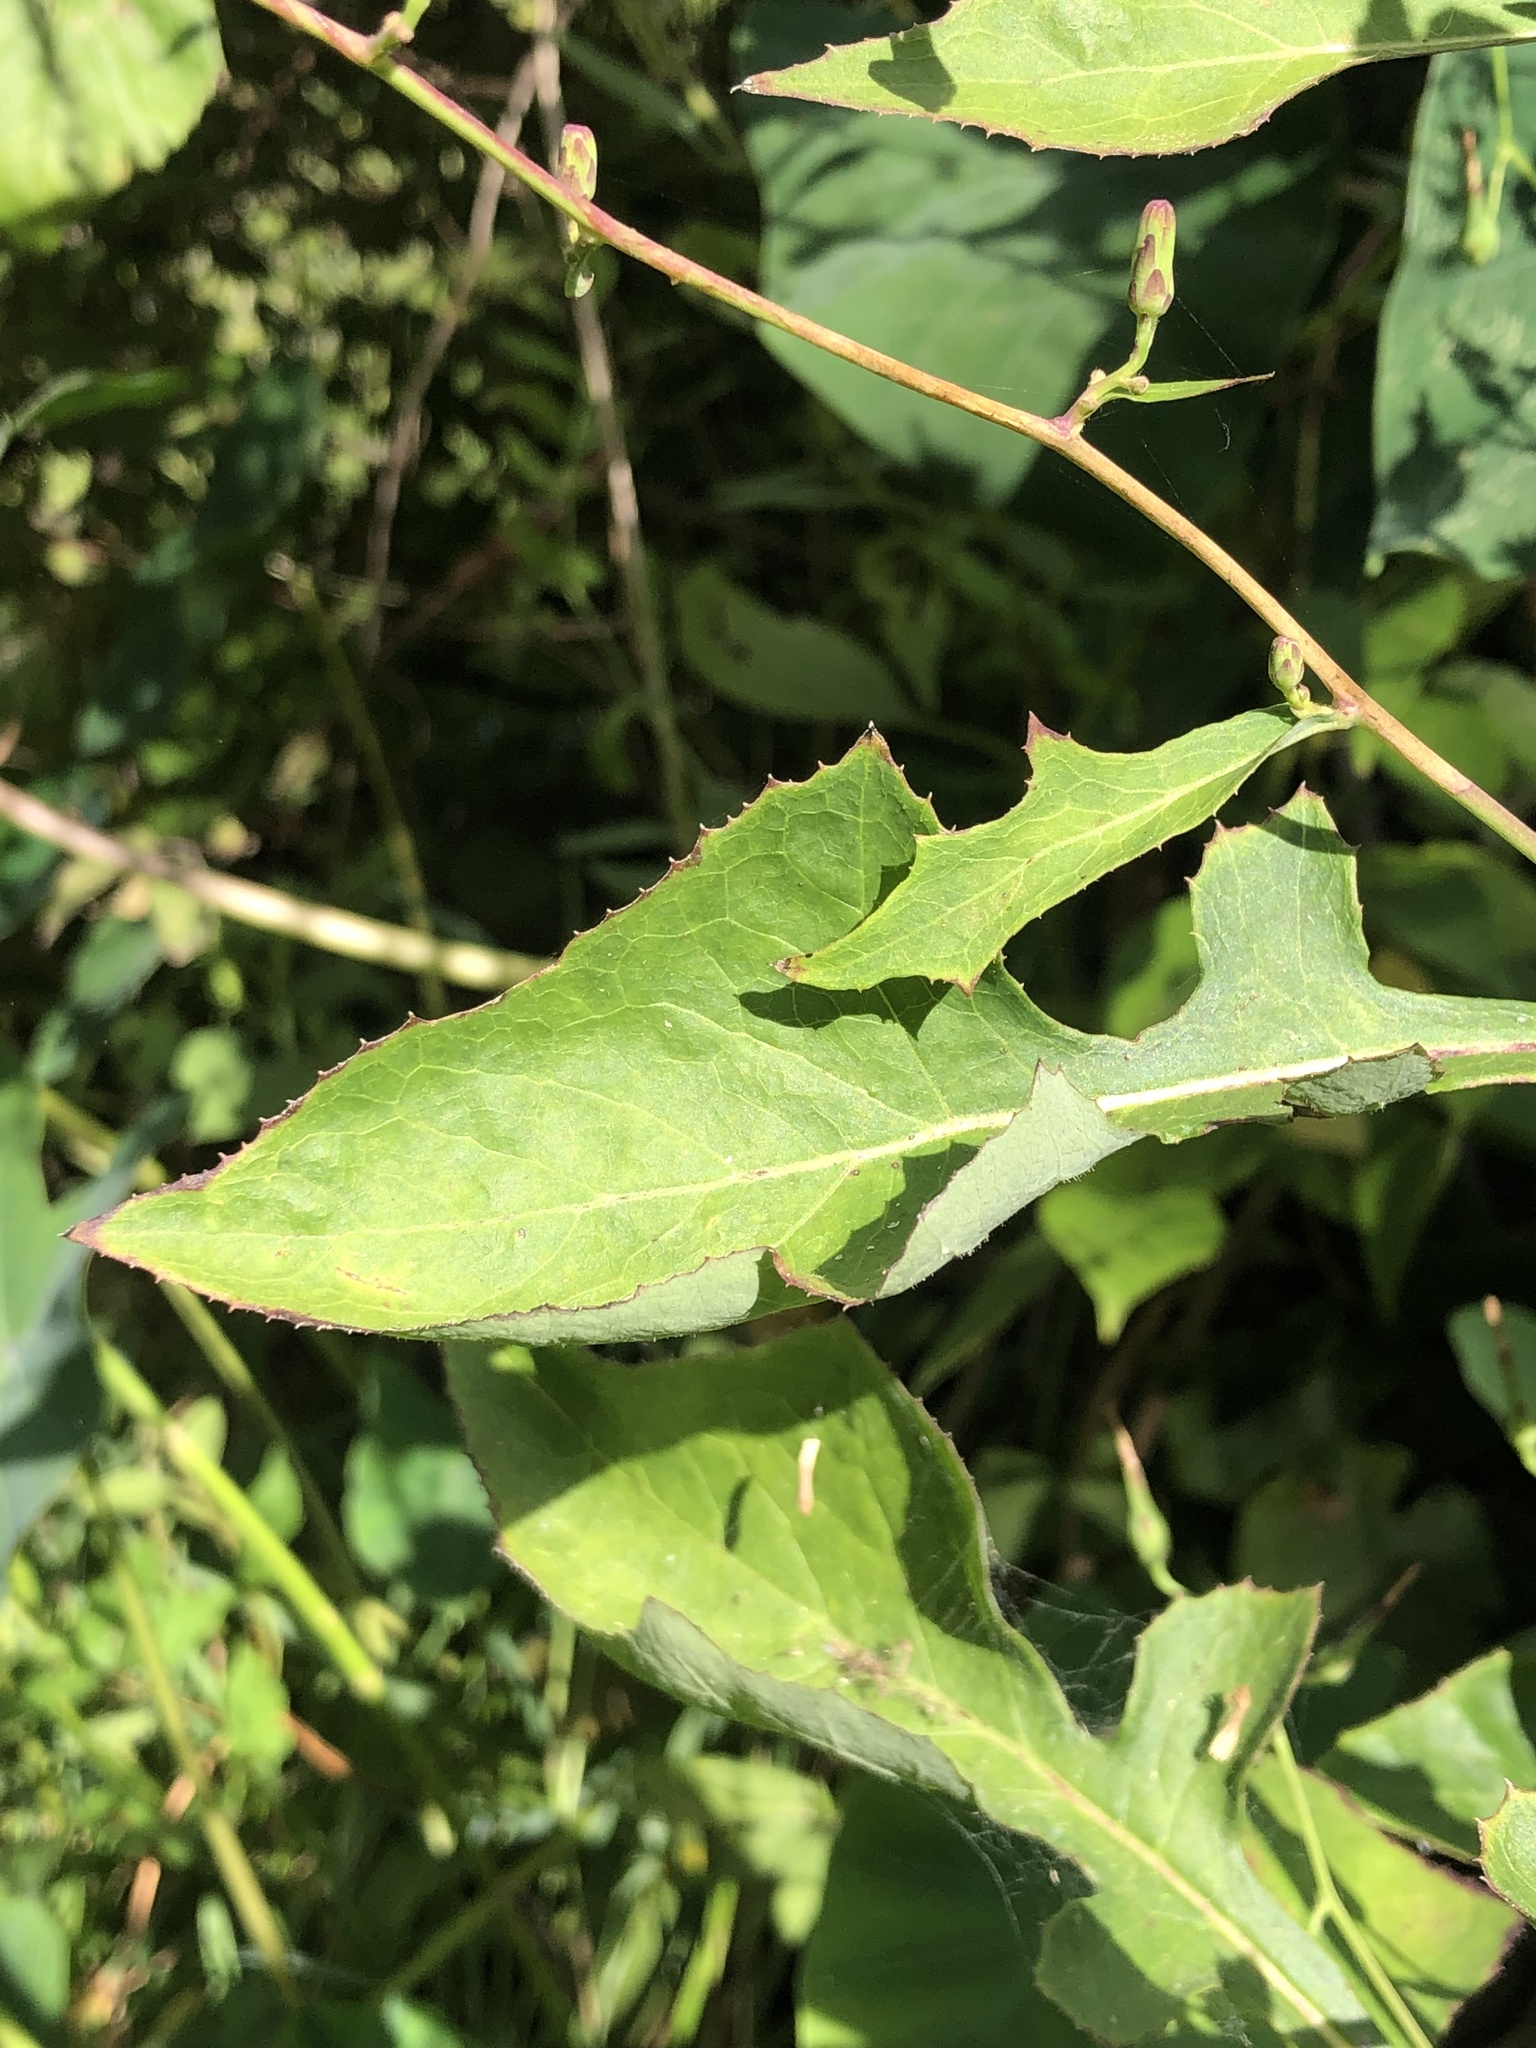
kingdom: Plantae
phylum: Tracheophyta
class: Magnoliopsida
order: Asterales
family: Asteraceae
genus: Lactuca
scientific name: Lactuca floridana
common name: Woodland lettuce
